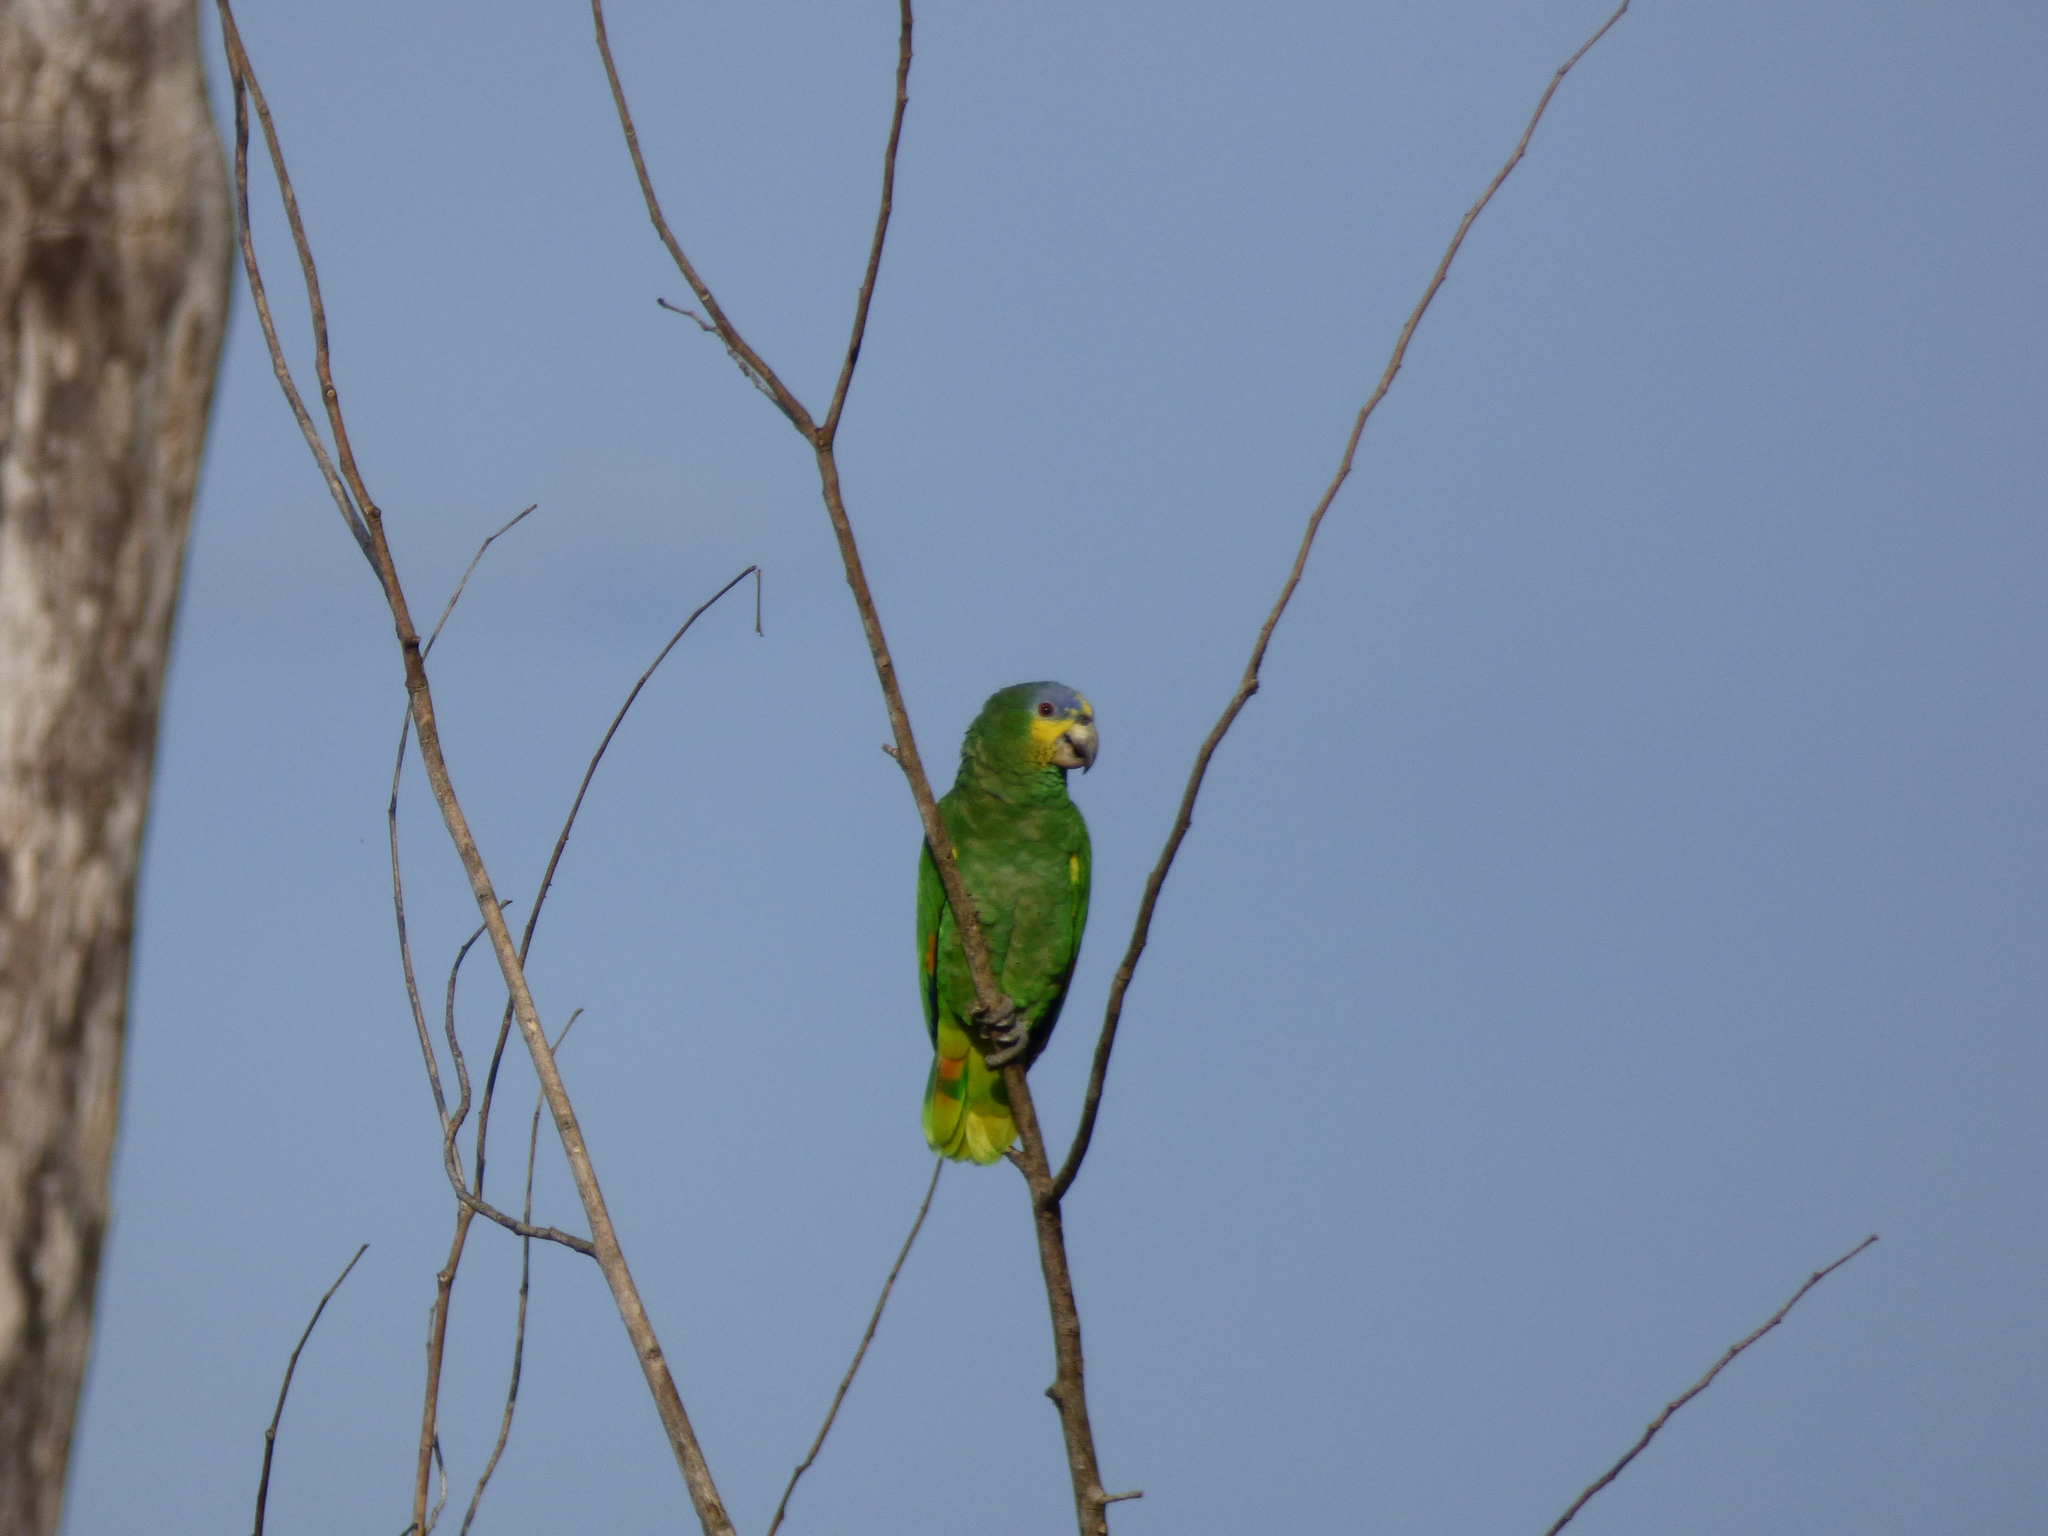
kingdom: Animalia
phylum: Chordata
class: Aves
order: Psittaciformes
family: Psittacidae
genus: Amazona
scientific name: Amazona amazonica
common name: Orange-winged amazon
